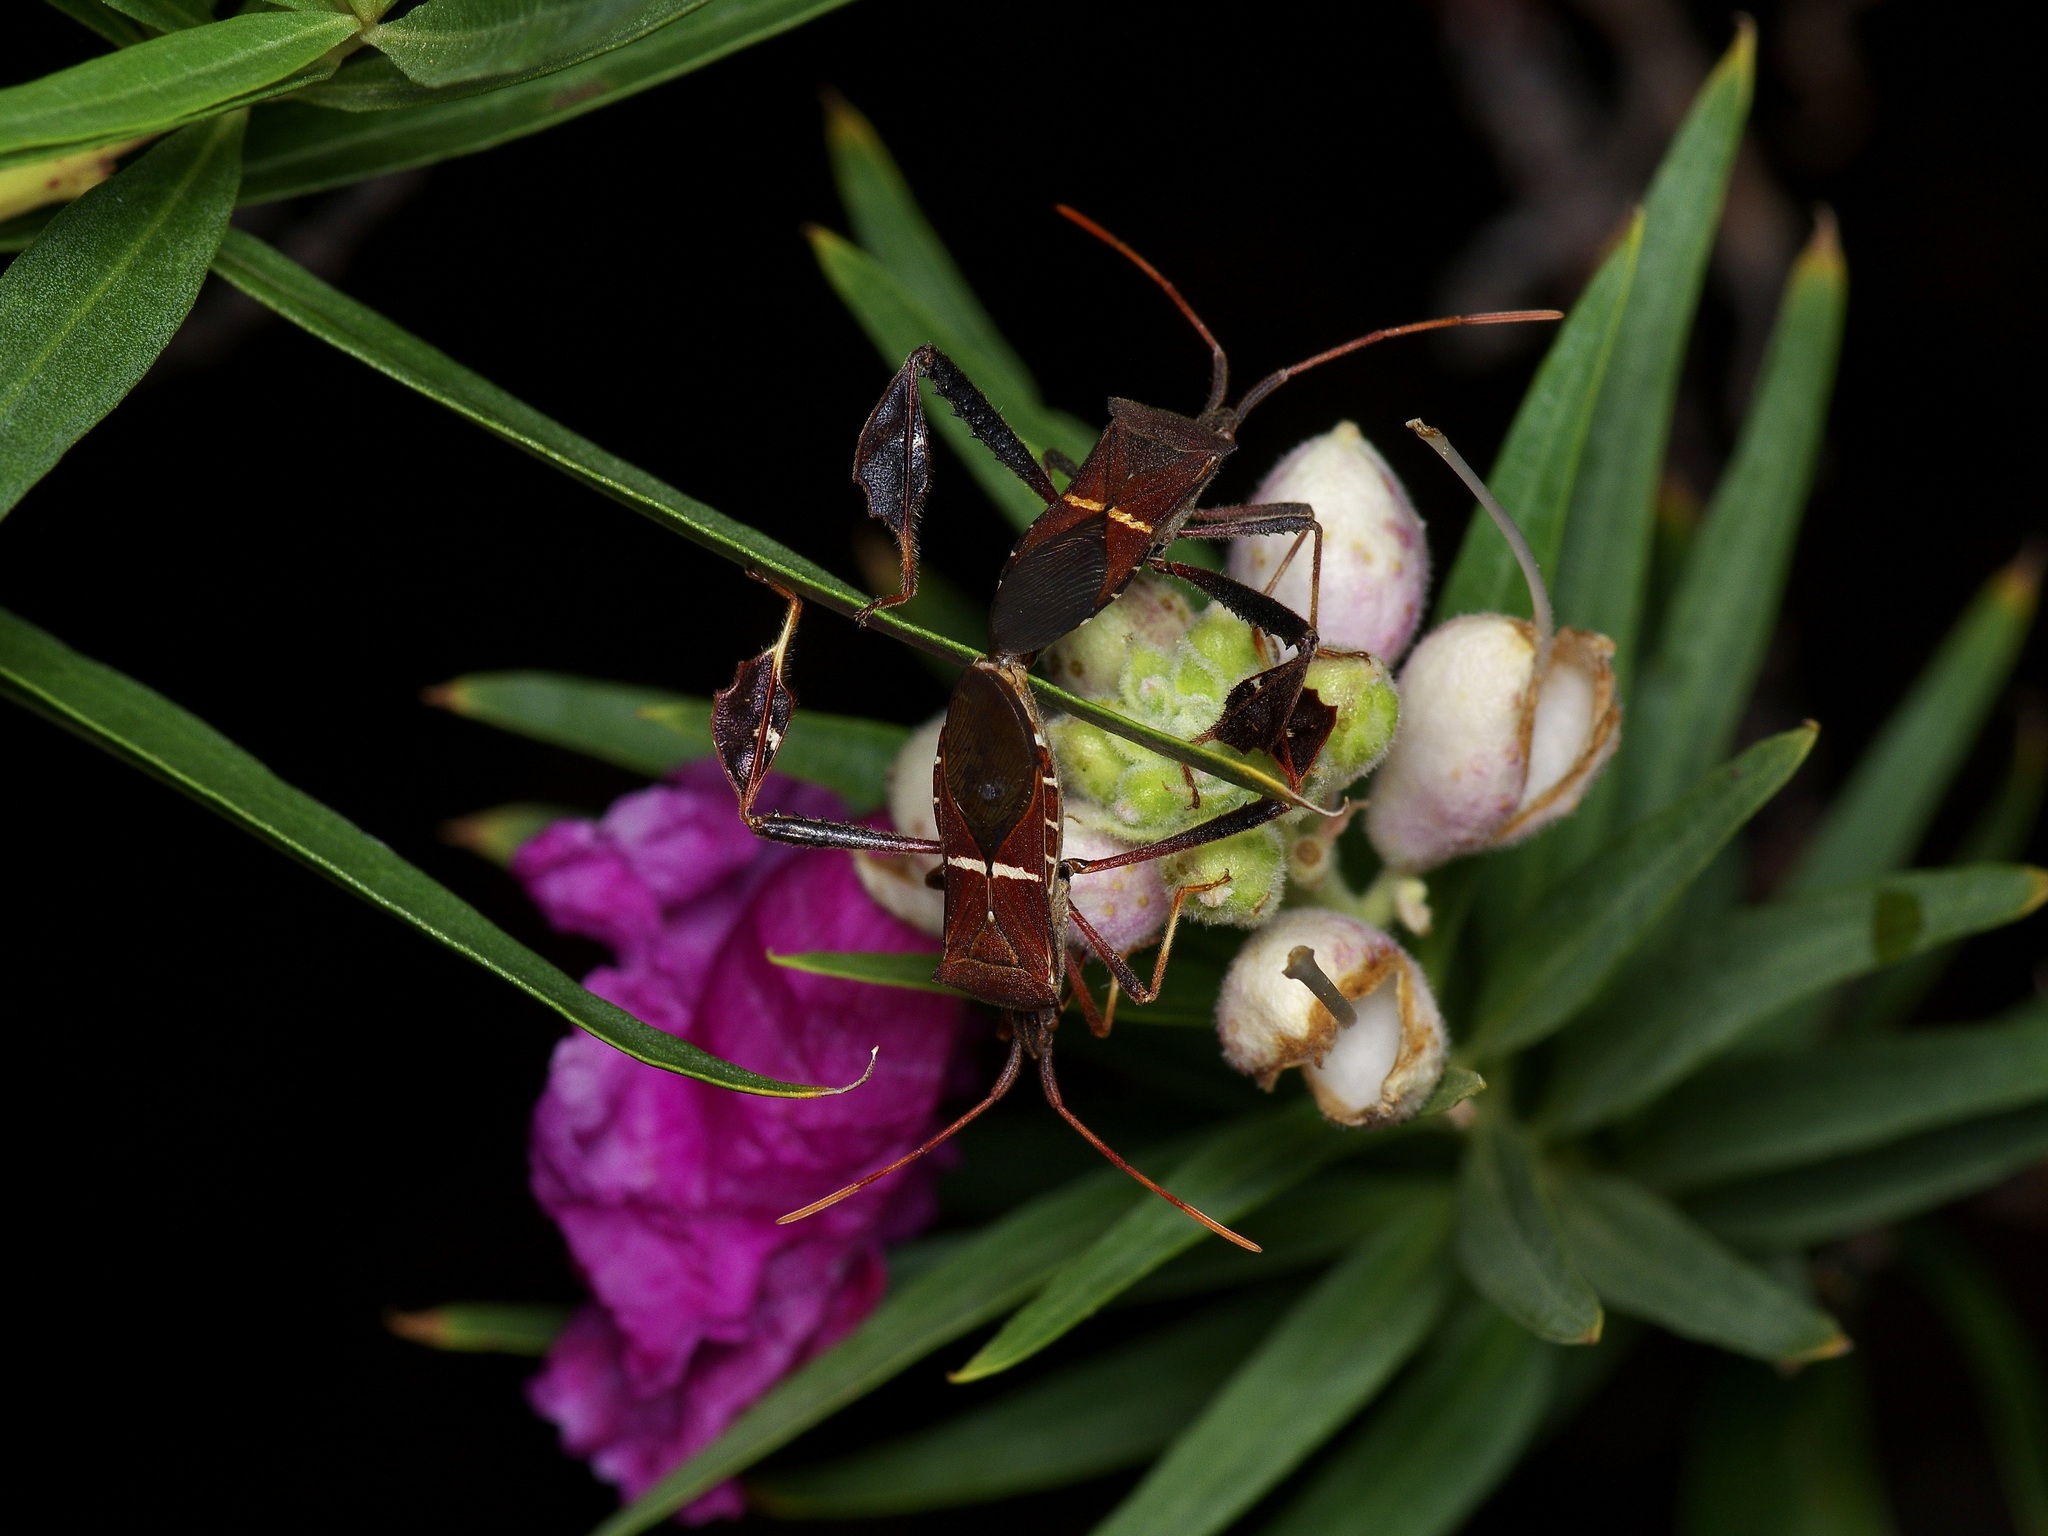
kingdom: Animalia
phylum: Arthropoda
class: Insecta
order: Hemiptera
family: Coreidae
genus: Leptoglossus
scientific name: Leptoglossus phyllopus
